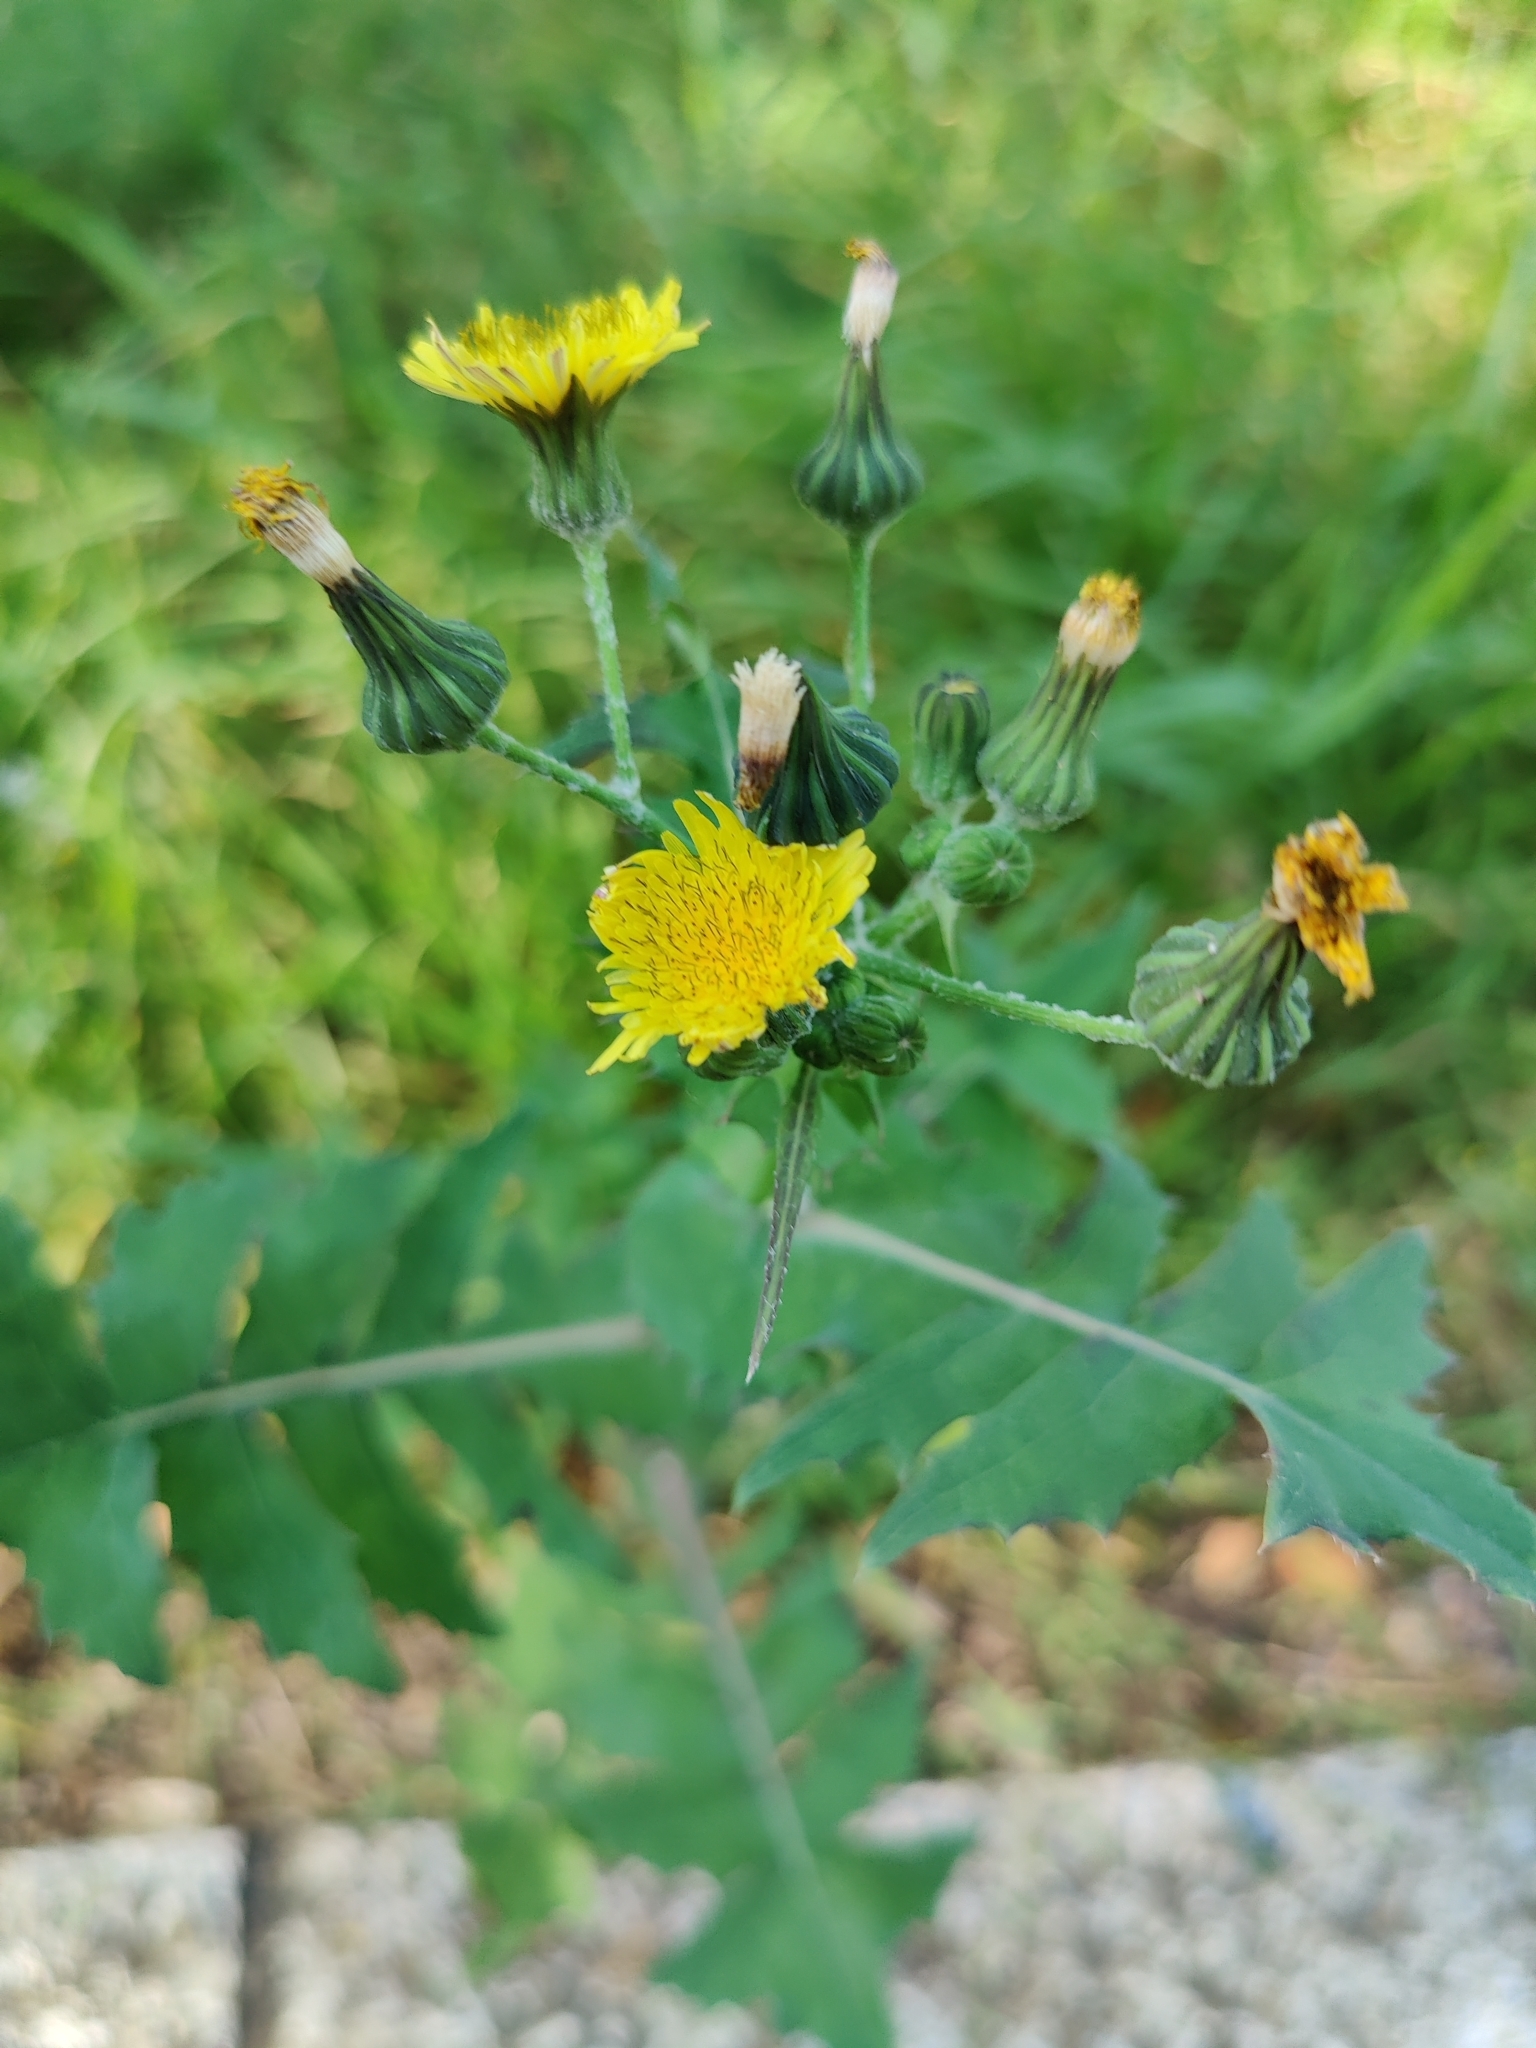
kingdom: Plantae
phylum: Tracheophyta
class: Magnoliopsida
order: Asterales
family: Asteraceae
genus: Sonchus
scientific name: Sonchus oleraceus
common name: Common sowthistle
